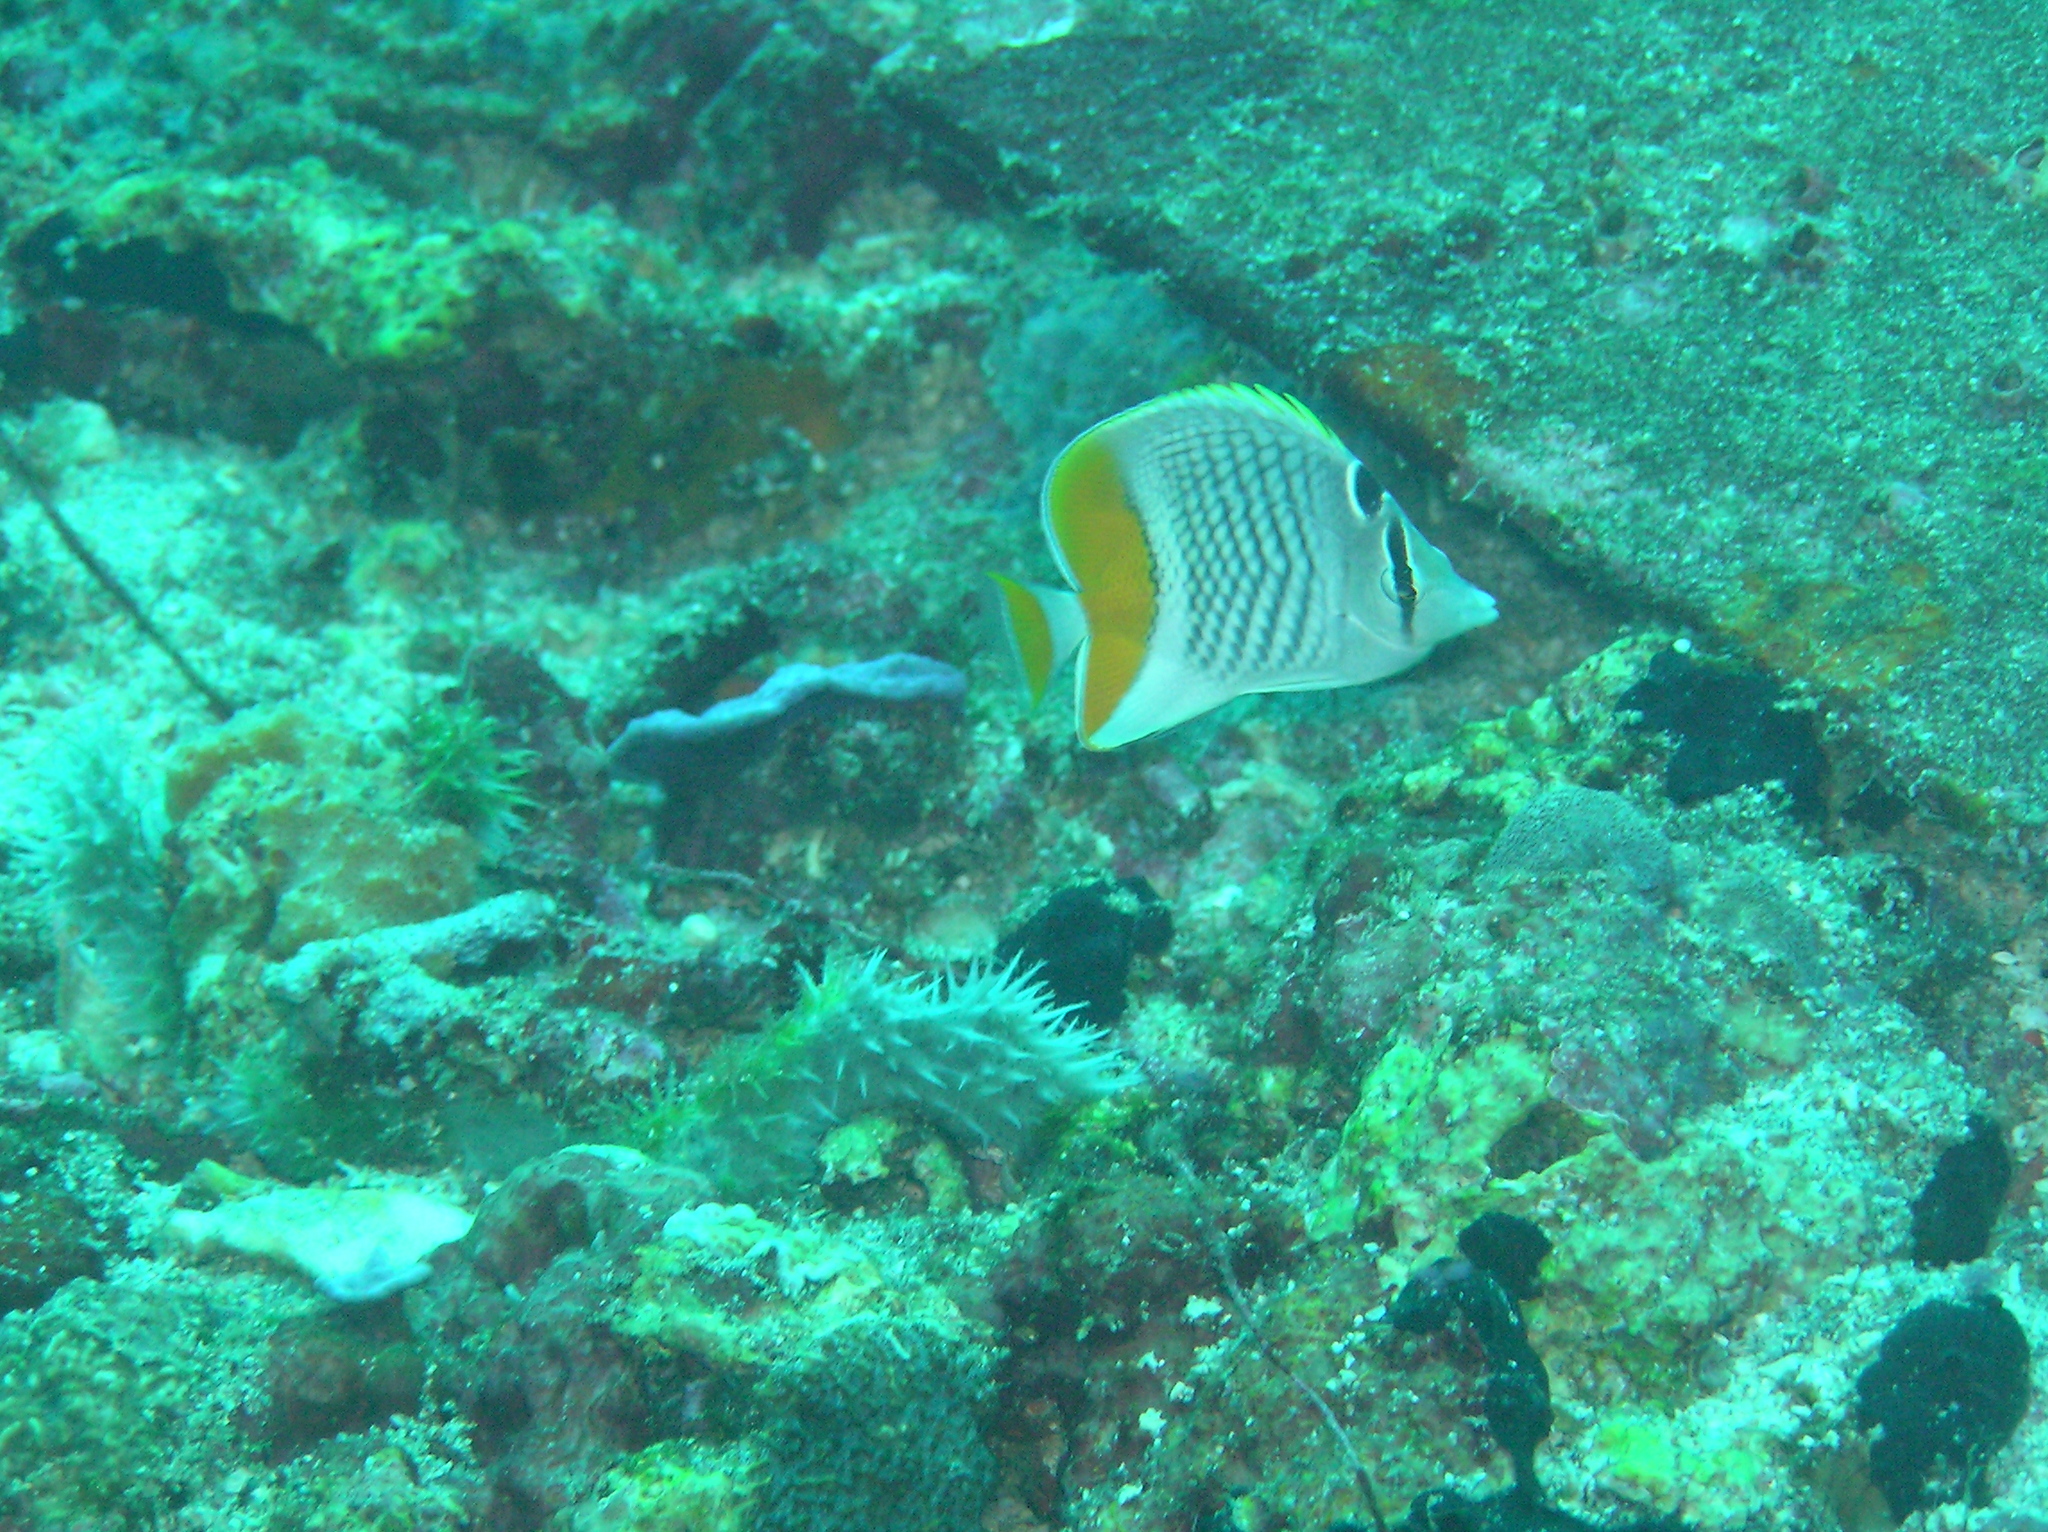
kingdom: Animalia
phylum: Chordata
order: Perciformes
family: Chaetodontidae
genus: Chaetodon
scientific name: Chaetodon xanthurus
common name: Philippine chevron butterflyfish
